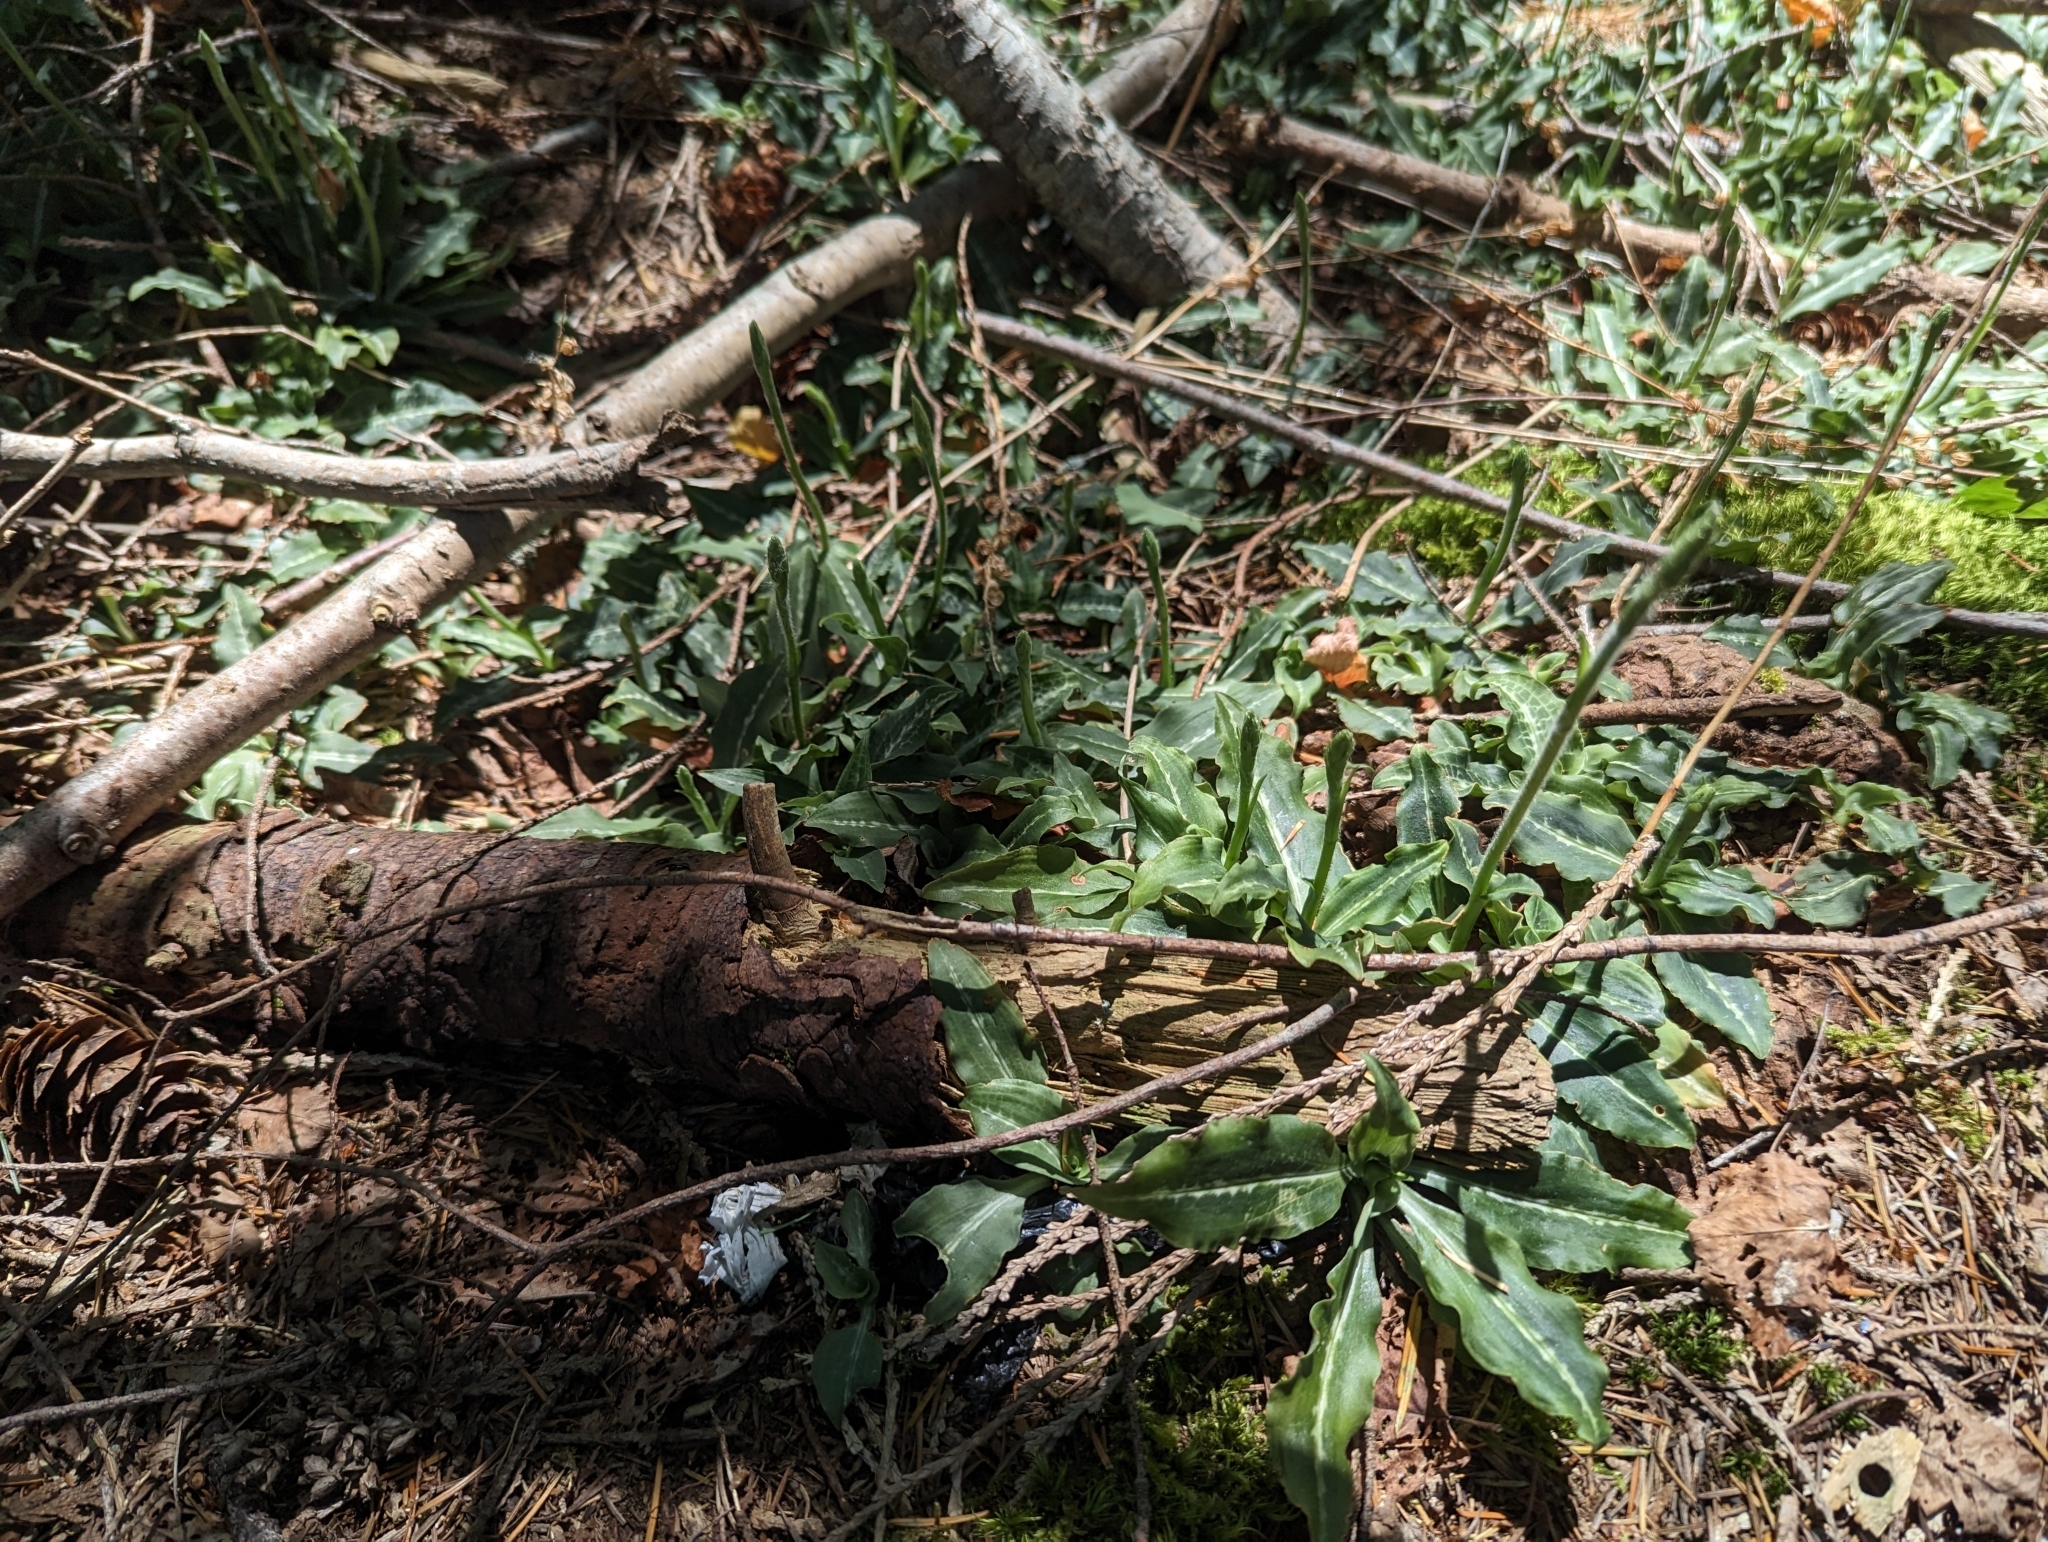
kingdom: Plantae
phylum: Tracheophyta
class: Liliopsida
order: Asparagales
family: Orchidaceae
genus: Goodyera
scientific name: Goodyera oblongifolia
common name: Giant rattlesnake-plantain
